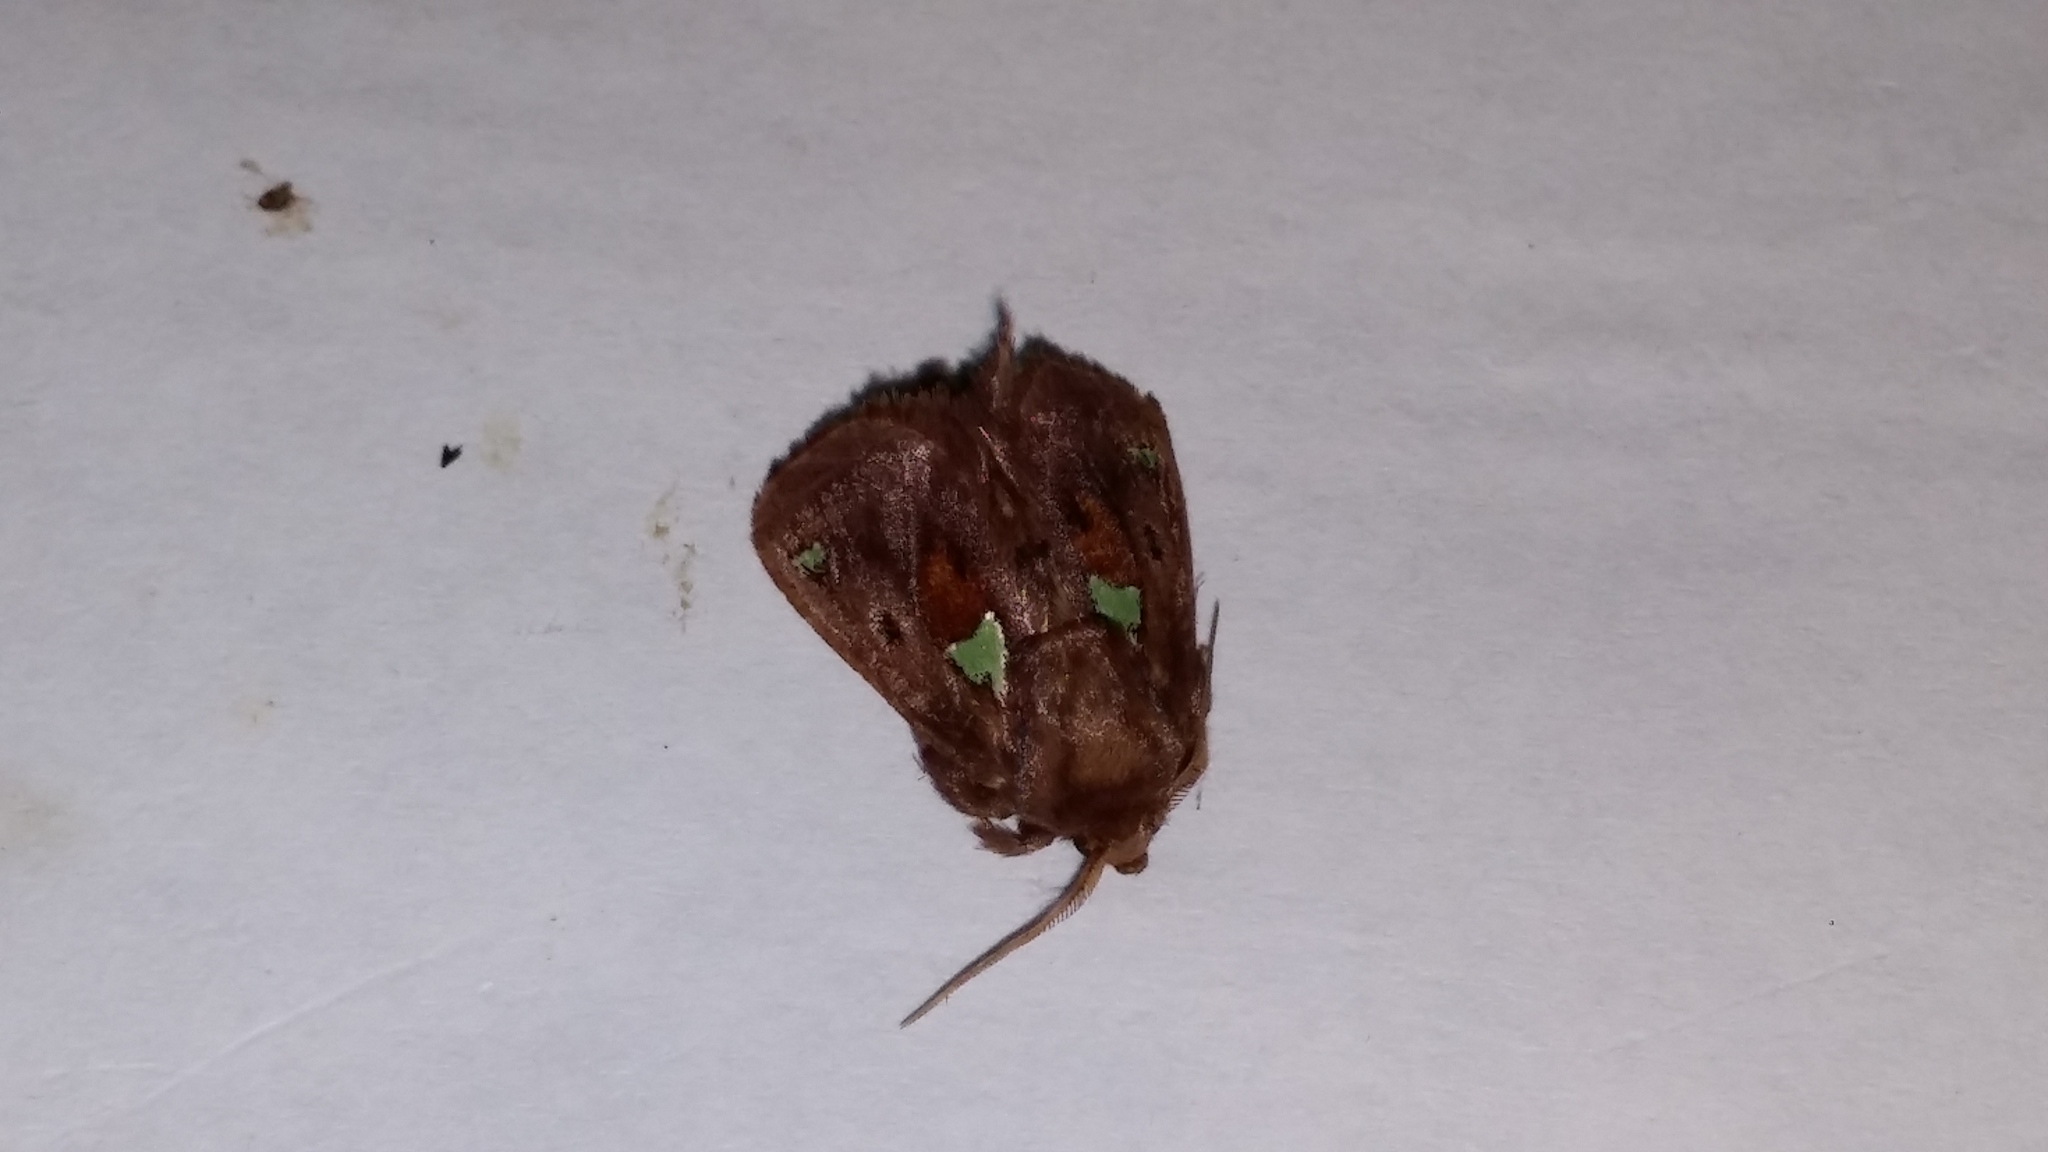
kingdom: Animalia
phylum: Arthropoda
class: Insecta
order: Lepidoptera
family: Limacodidae
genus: Euclea
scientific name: Euclea delphinii
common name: Spiny oak-slug moth
